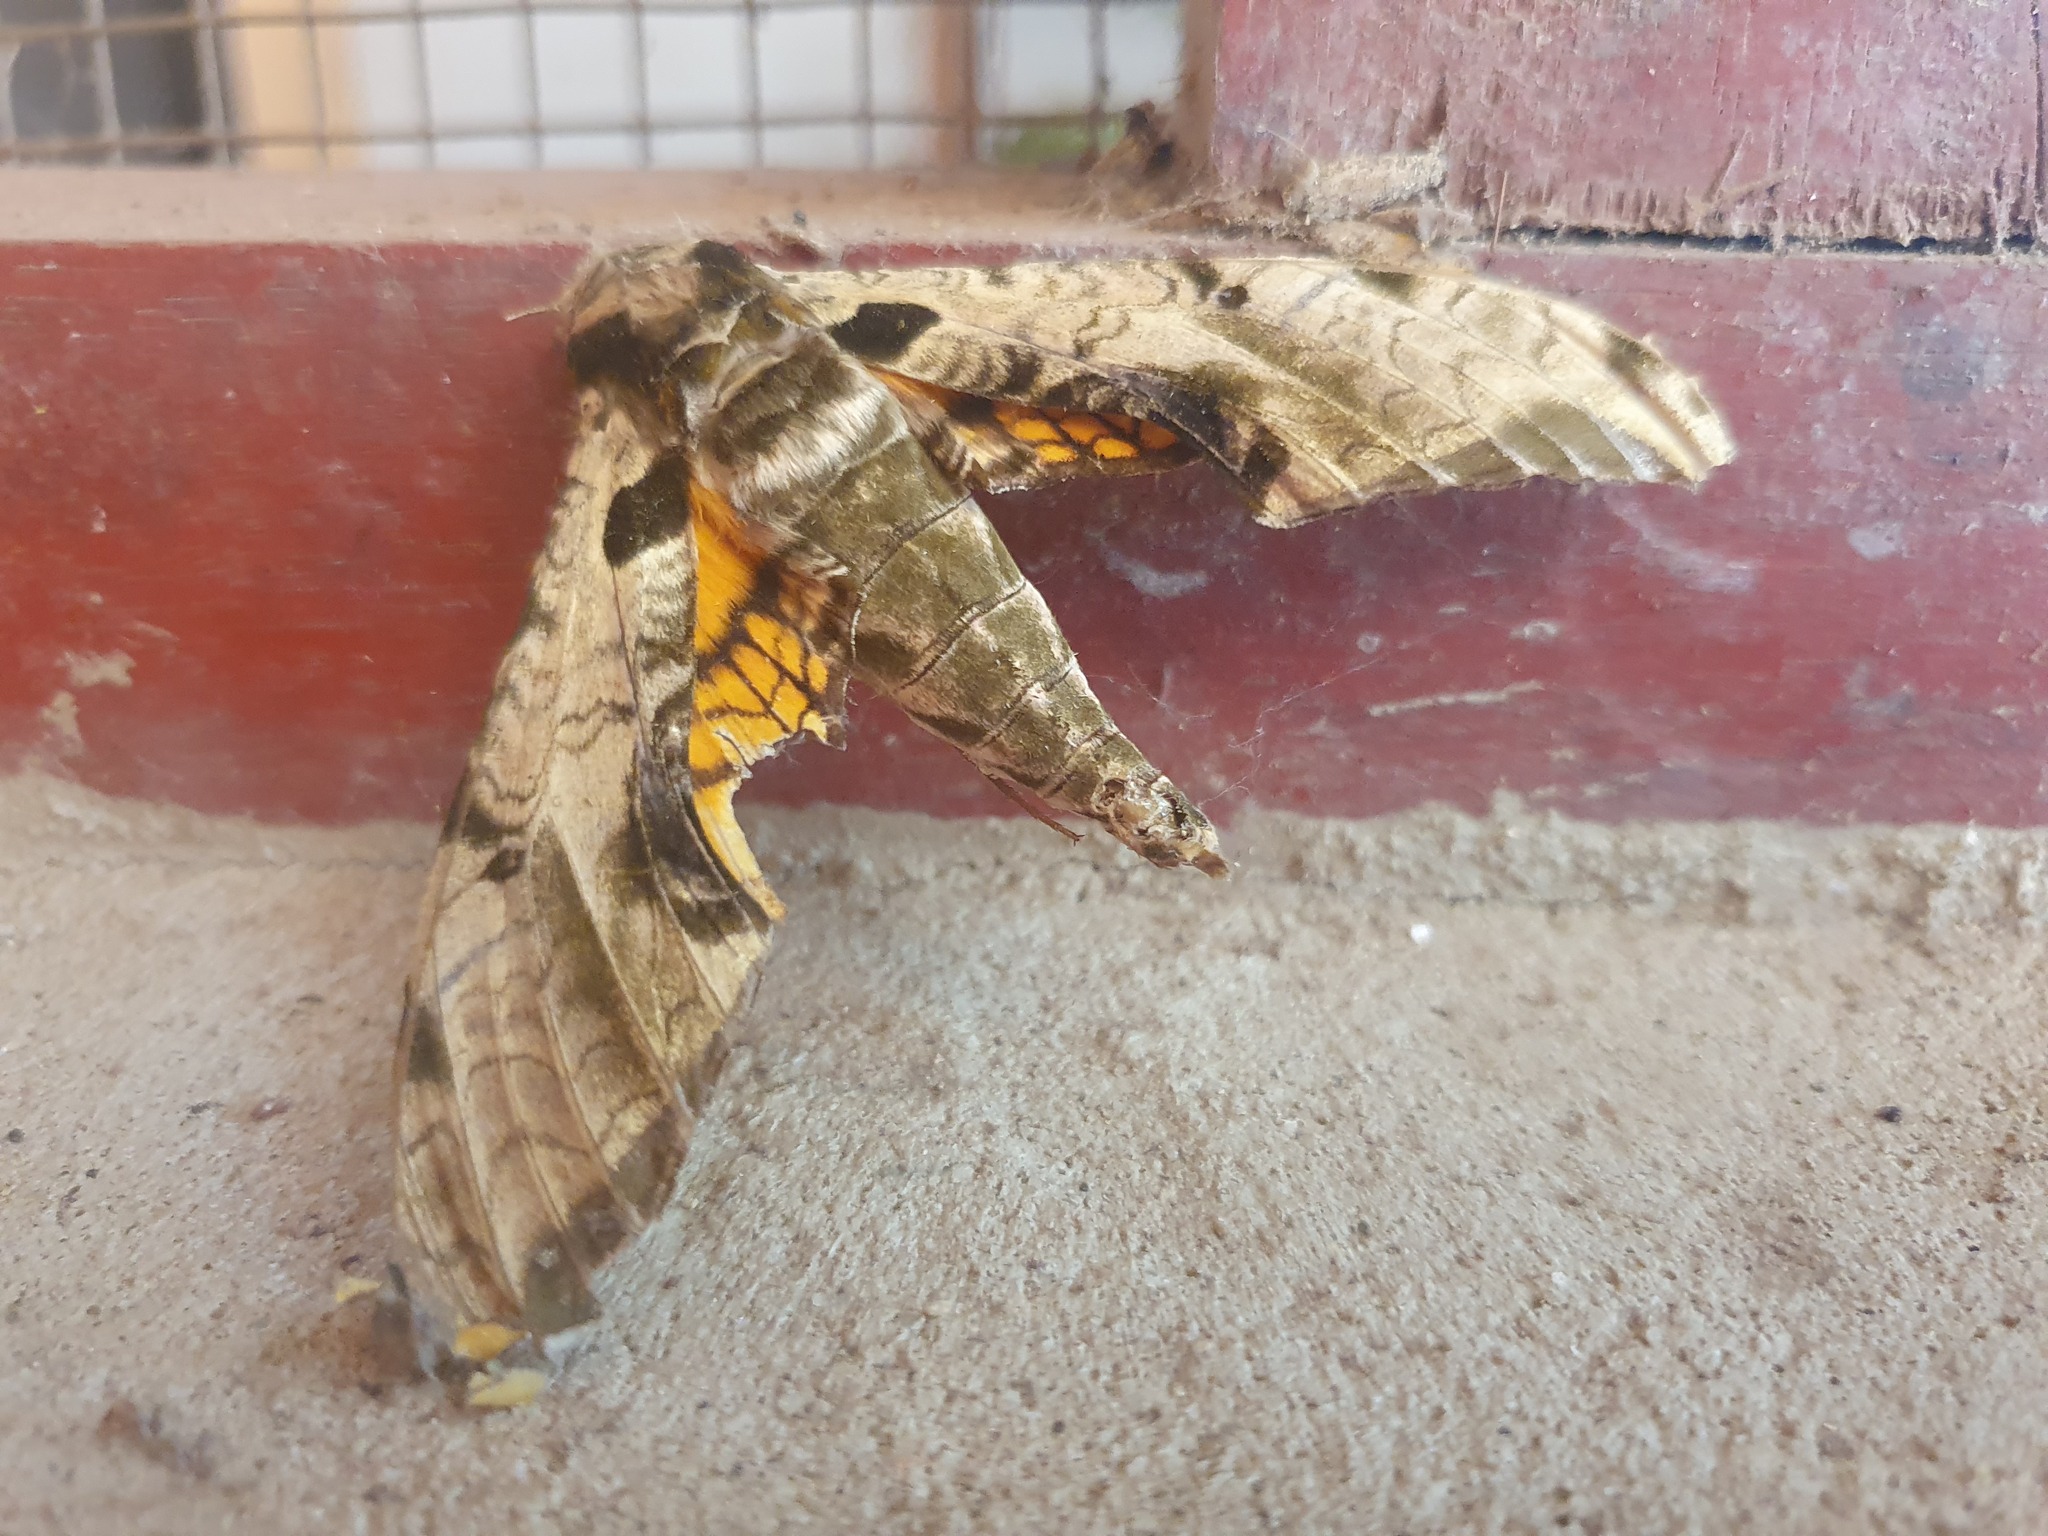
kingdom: Animalia
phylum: Arthropoda
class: Insecta
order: Lepidoptera
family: Sphingidae
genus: Protambulyx
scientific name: Protambulyx eurycles
